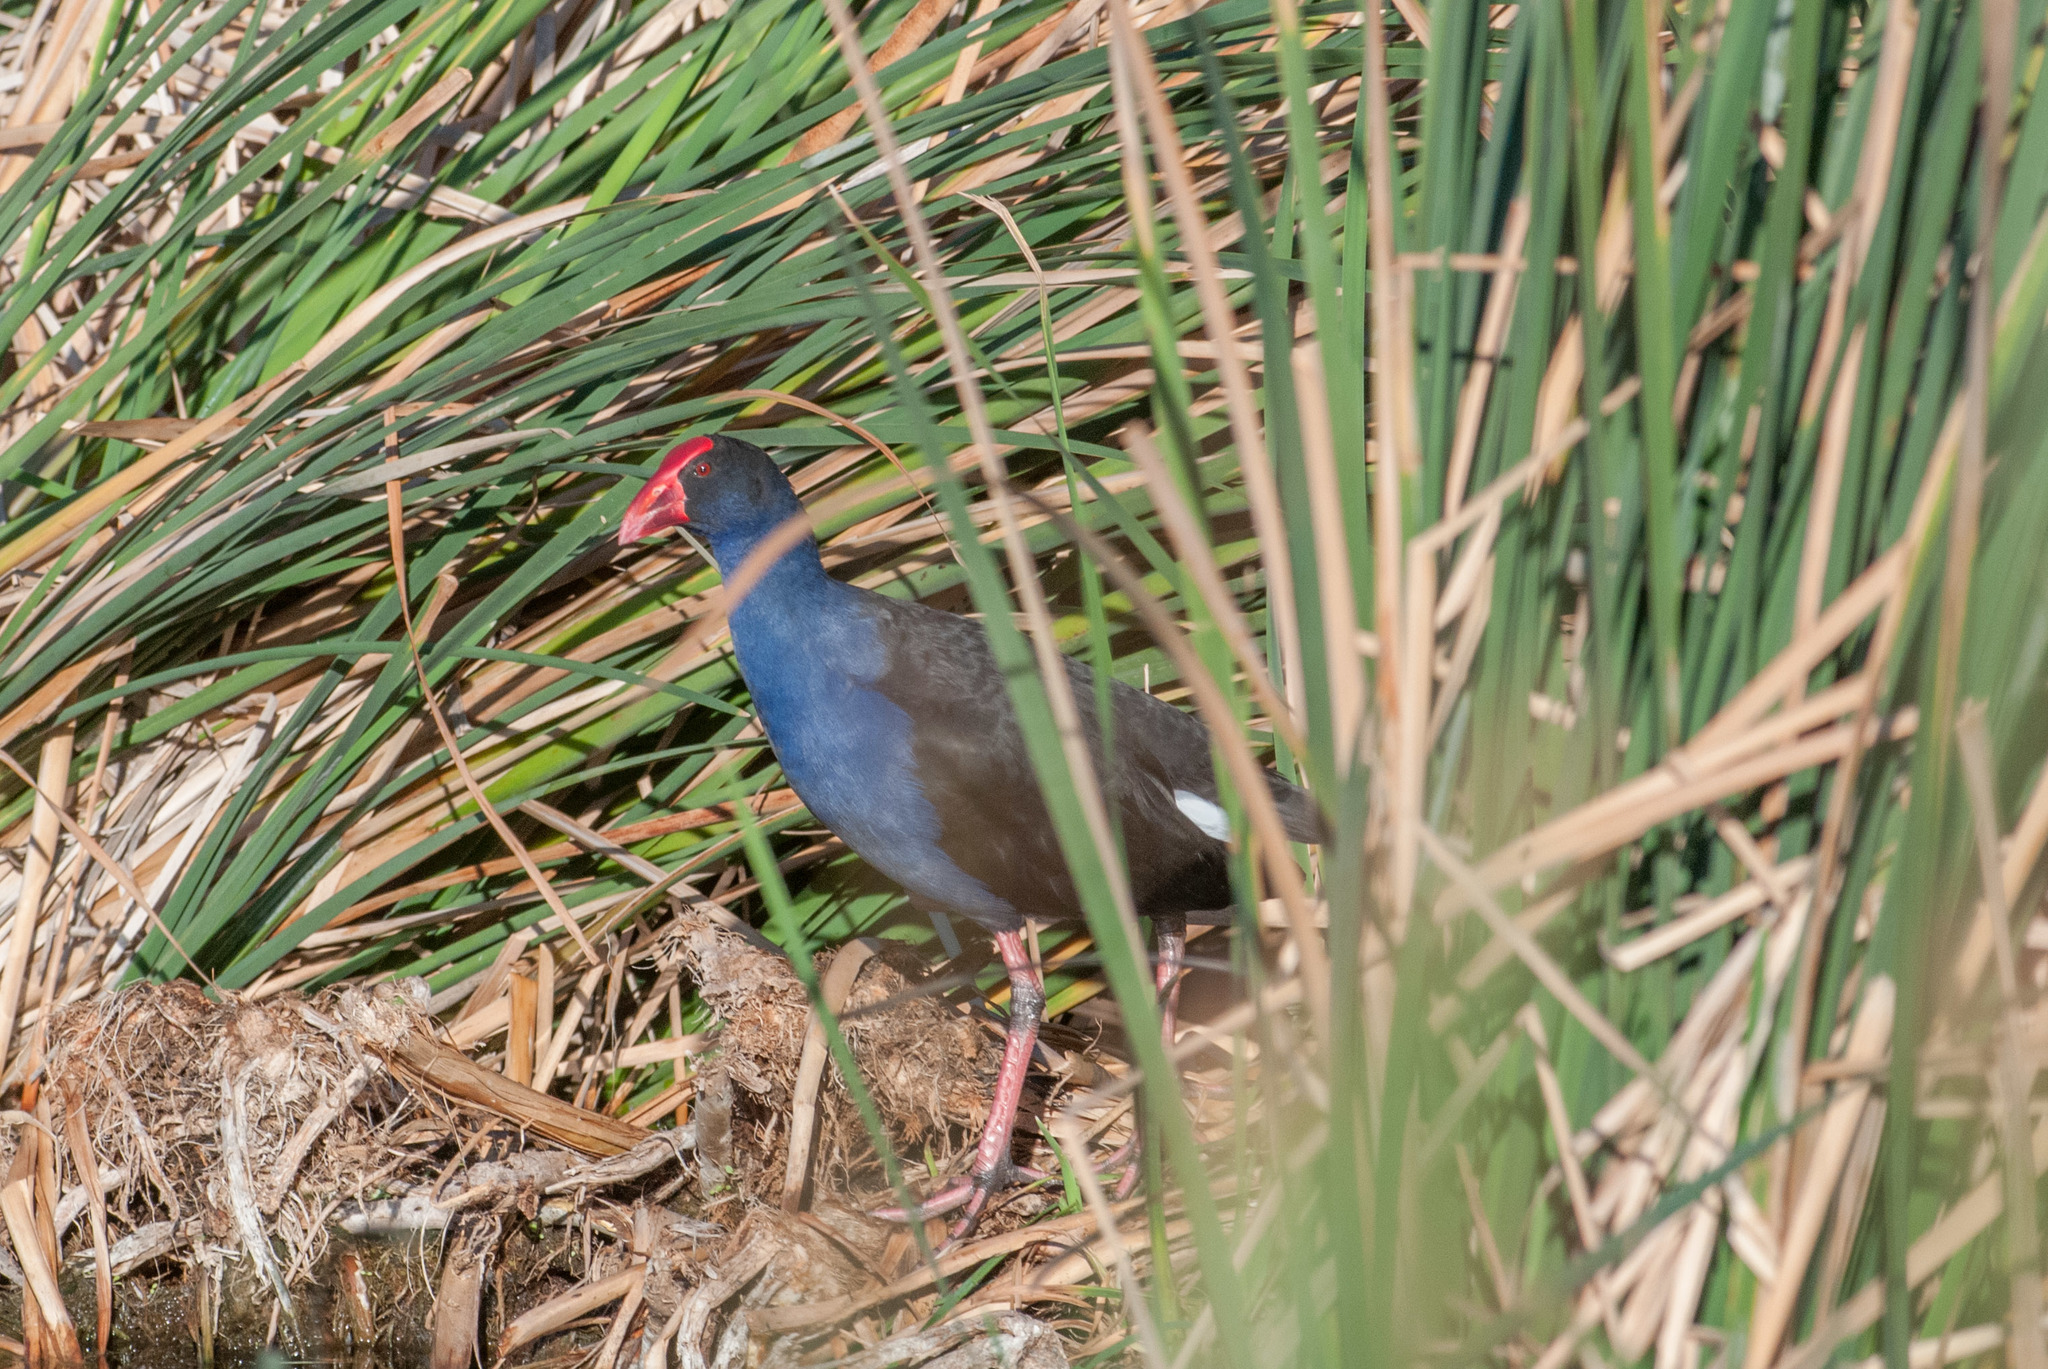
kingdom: Animalia
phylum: Chordata
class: Aves
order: Gruiformes
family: Rallidae
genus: Porphyrio
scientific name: Porphyrio melanotus
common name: Australasian swamphen
